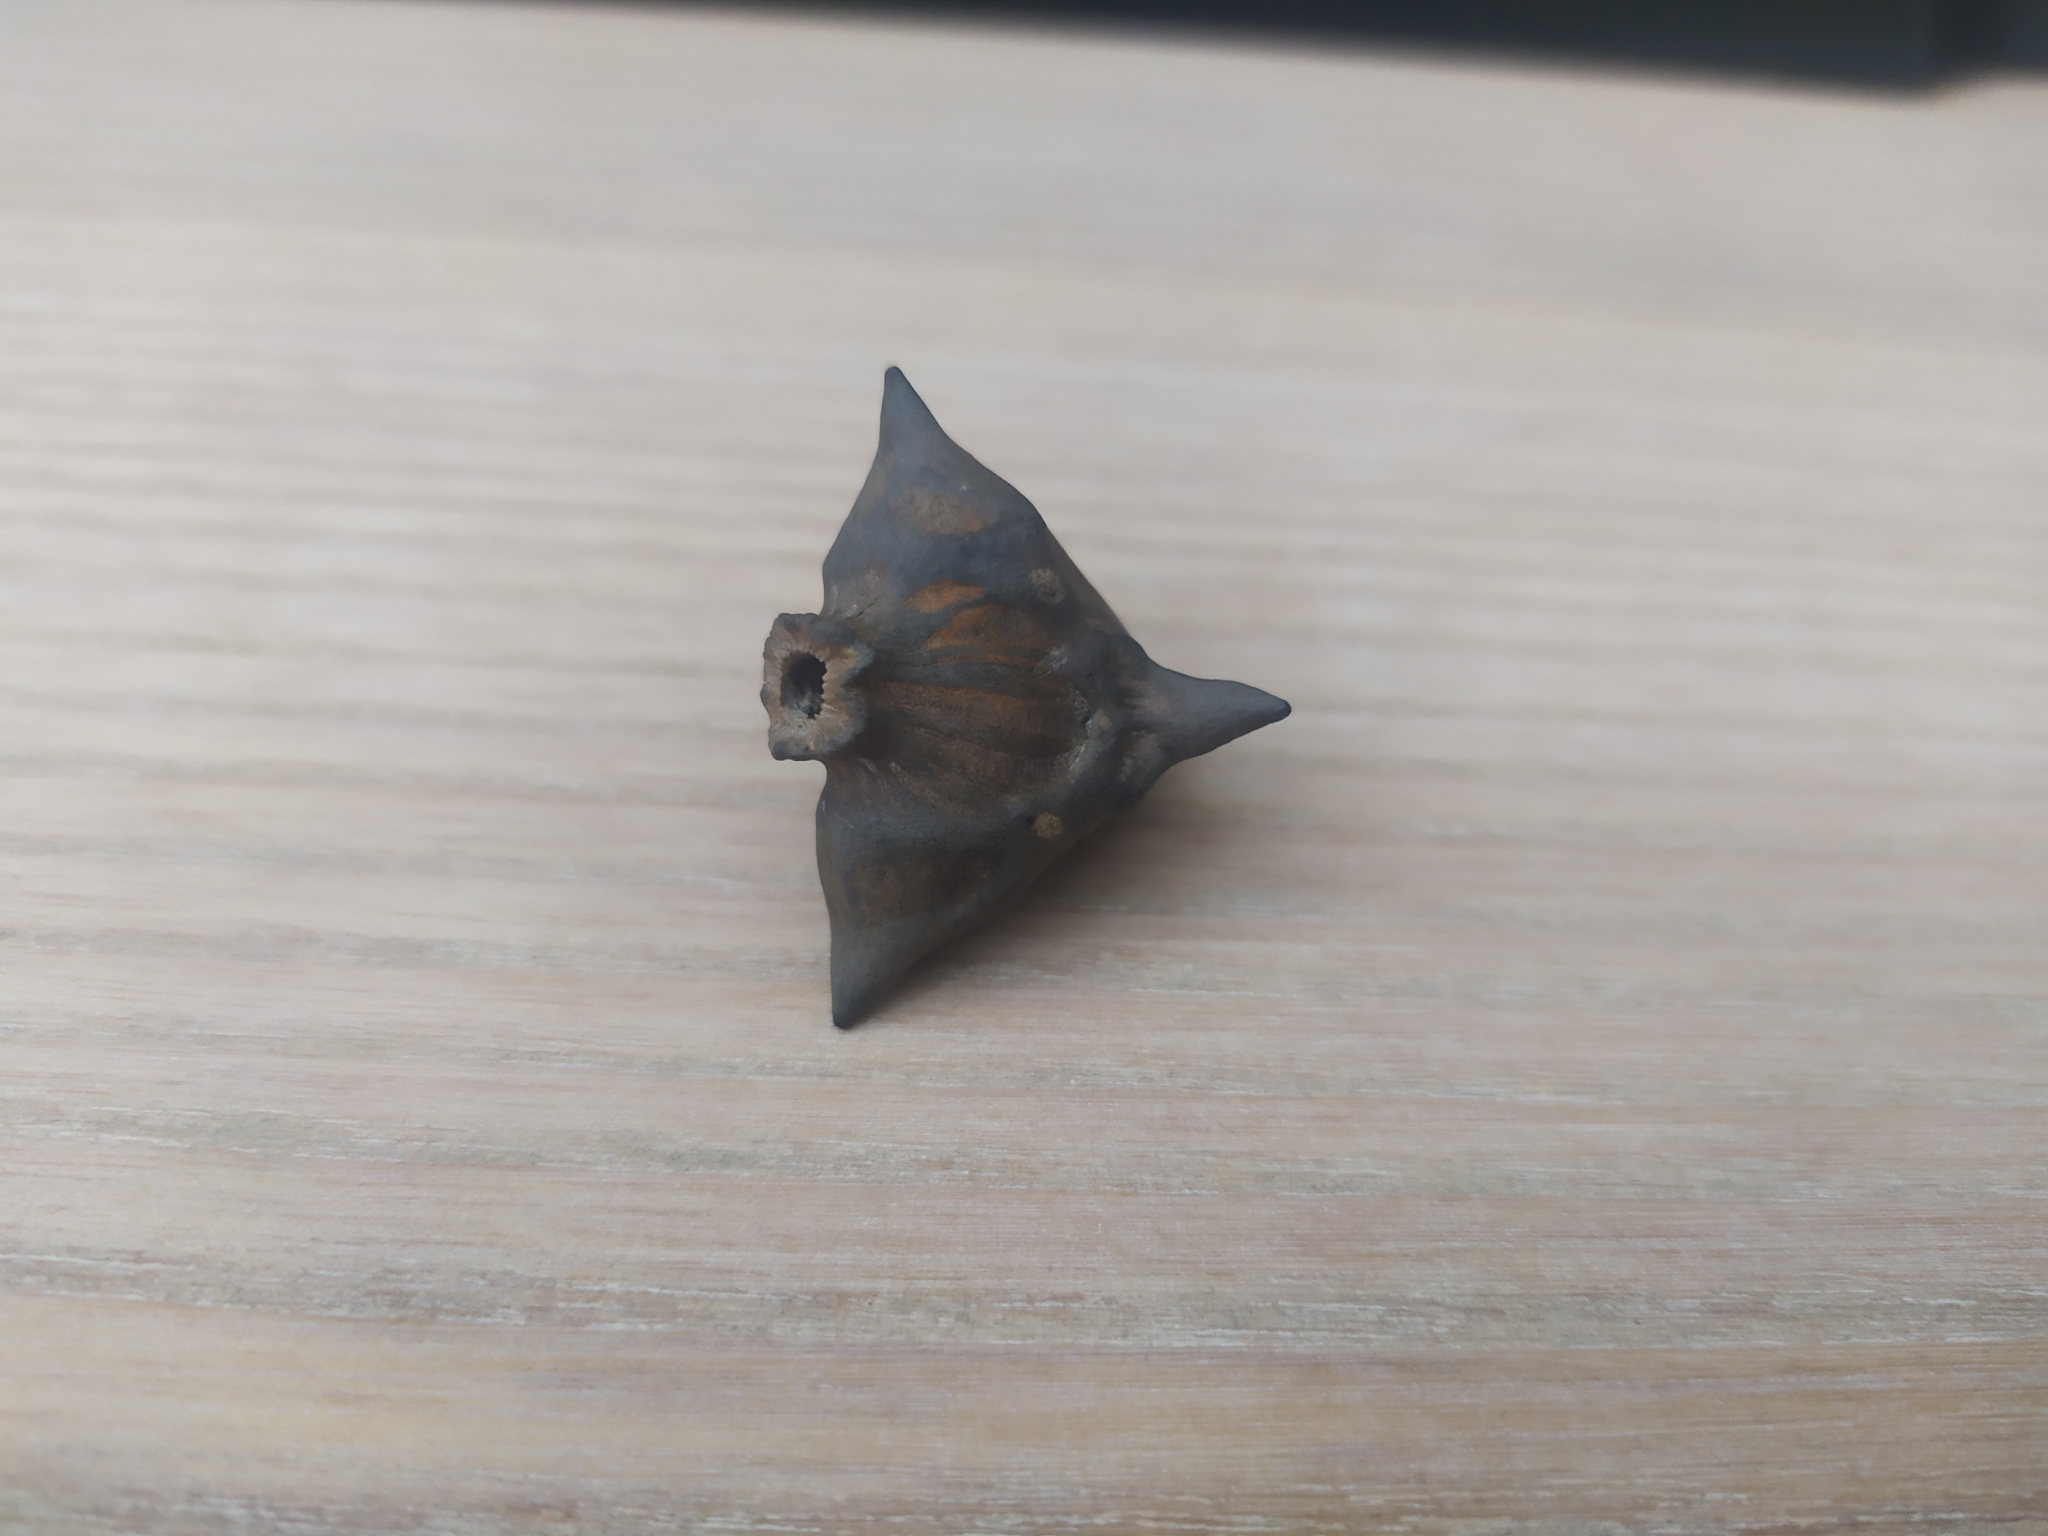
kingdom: Plantae
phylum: Tracheophyta
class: Magnoliopsida
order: Myrtales
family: Lythraceae
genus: Trapa
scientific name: Trapa natans
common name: Water chestnut
